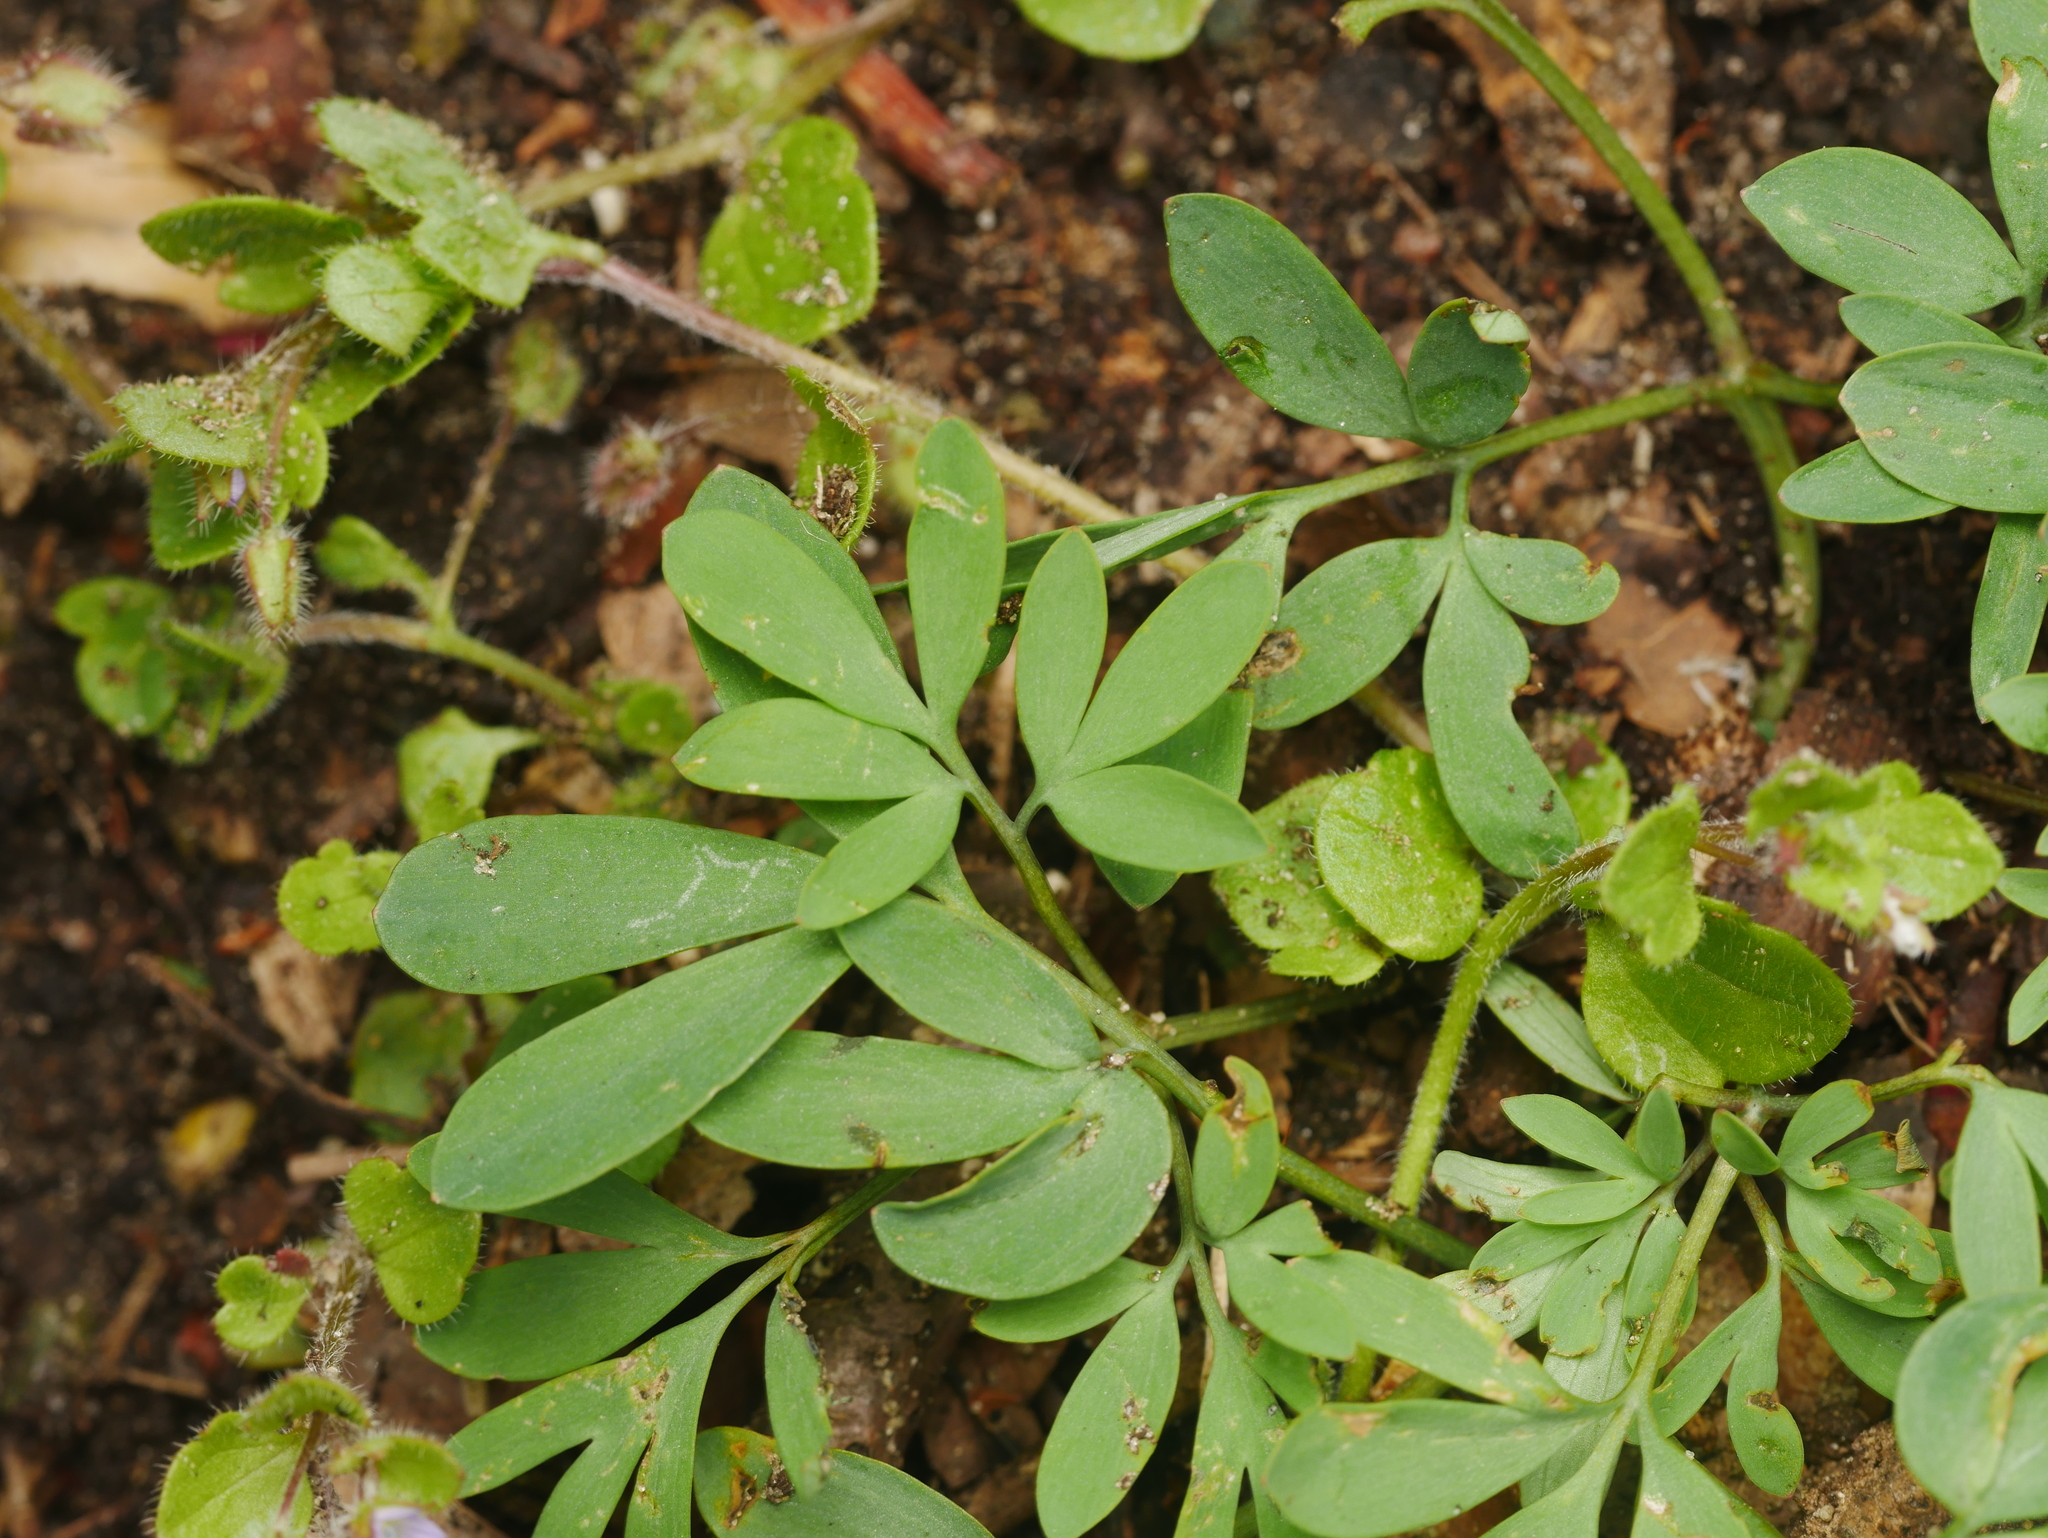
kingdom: Plantae
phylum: Tracheophyta
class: Magnoliopsida
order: Ranunculales
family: Papaveraceae
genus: Corydalis
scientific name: Corydalis solida
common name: Bird-in-a-bush
